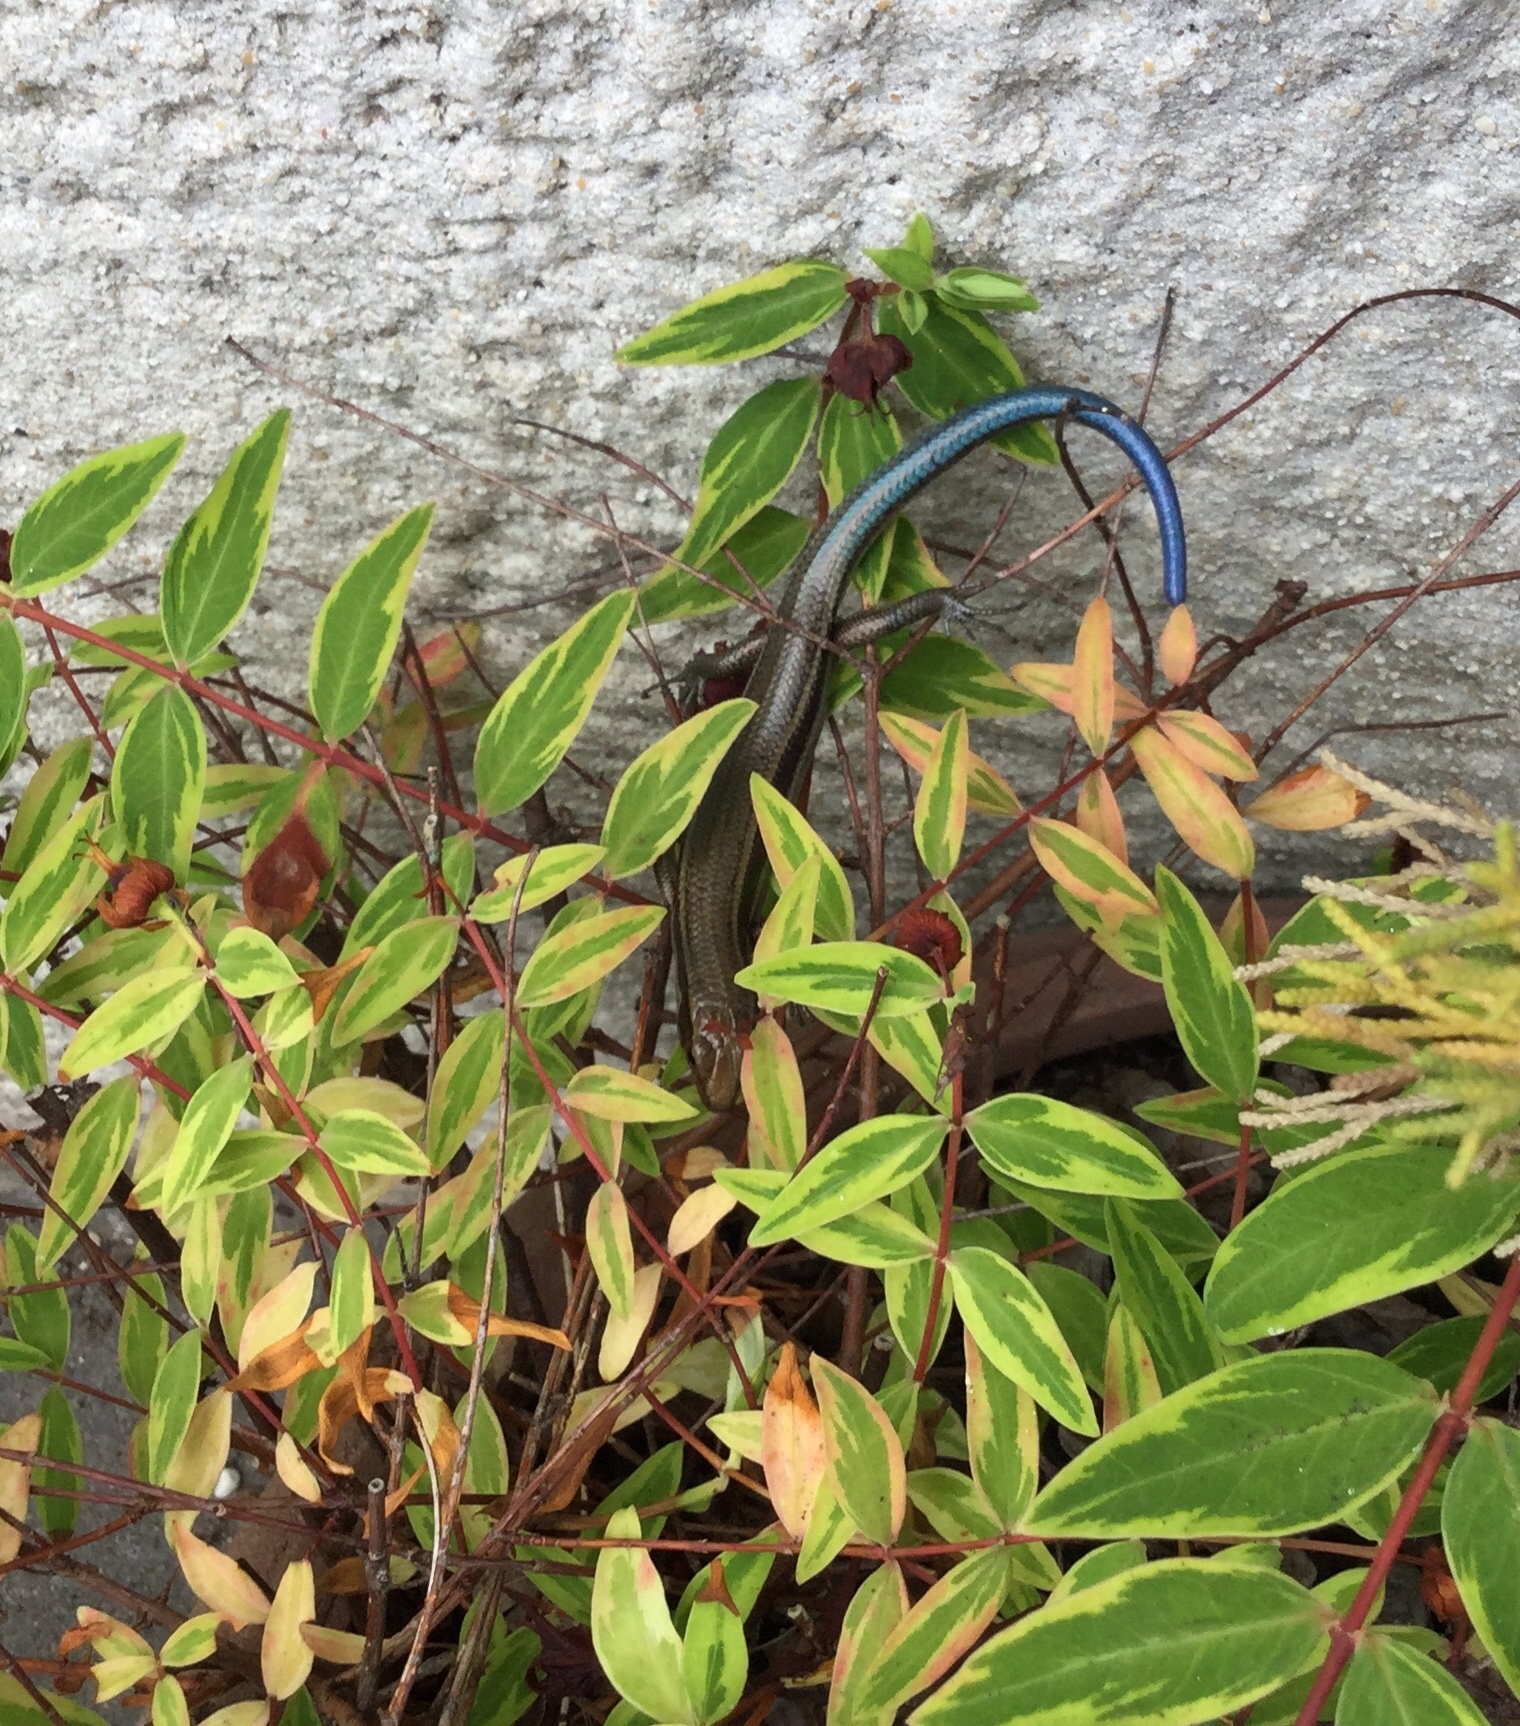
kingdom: Animalia
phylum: Chordata
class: Squamata
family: Scincidae
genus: Plestiodon
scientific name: Plestiodon finitimus
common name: Far eastern skink
